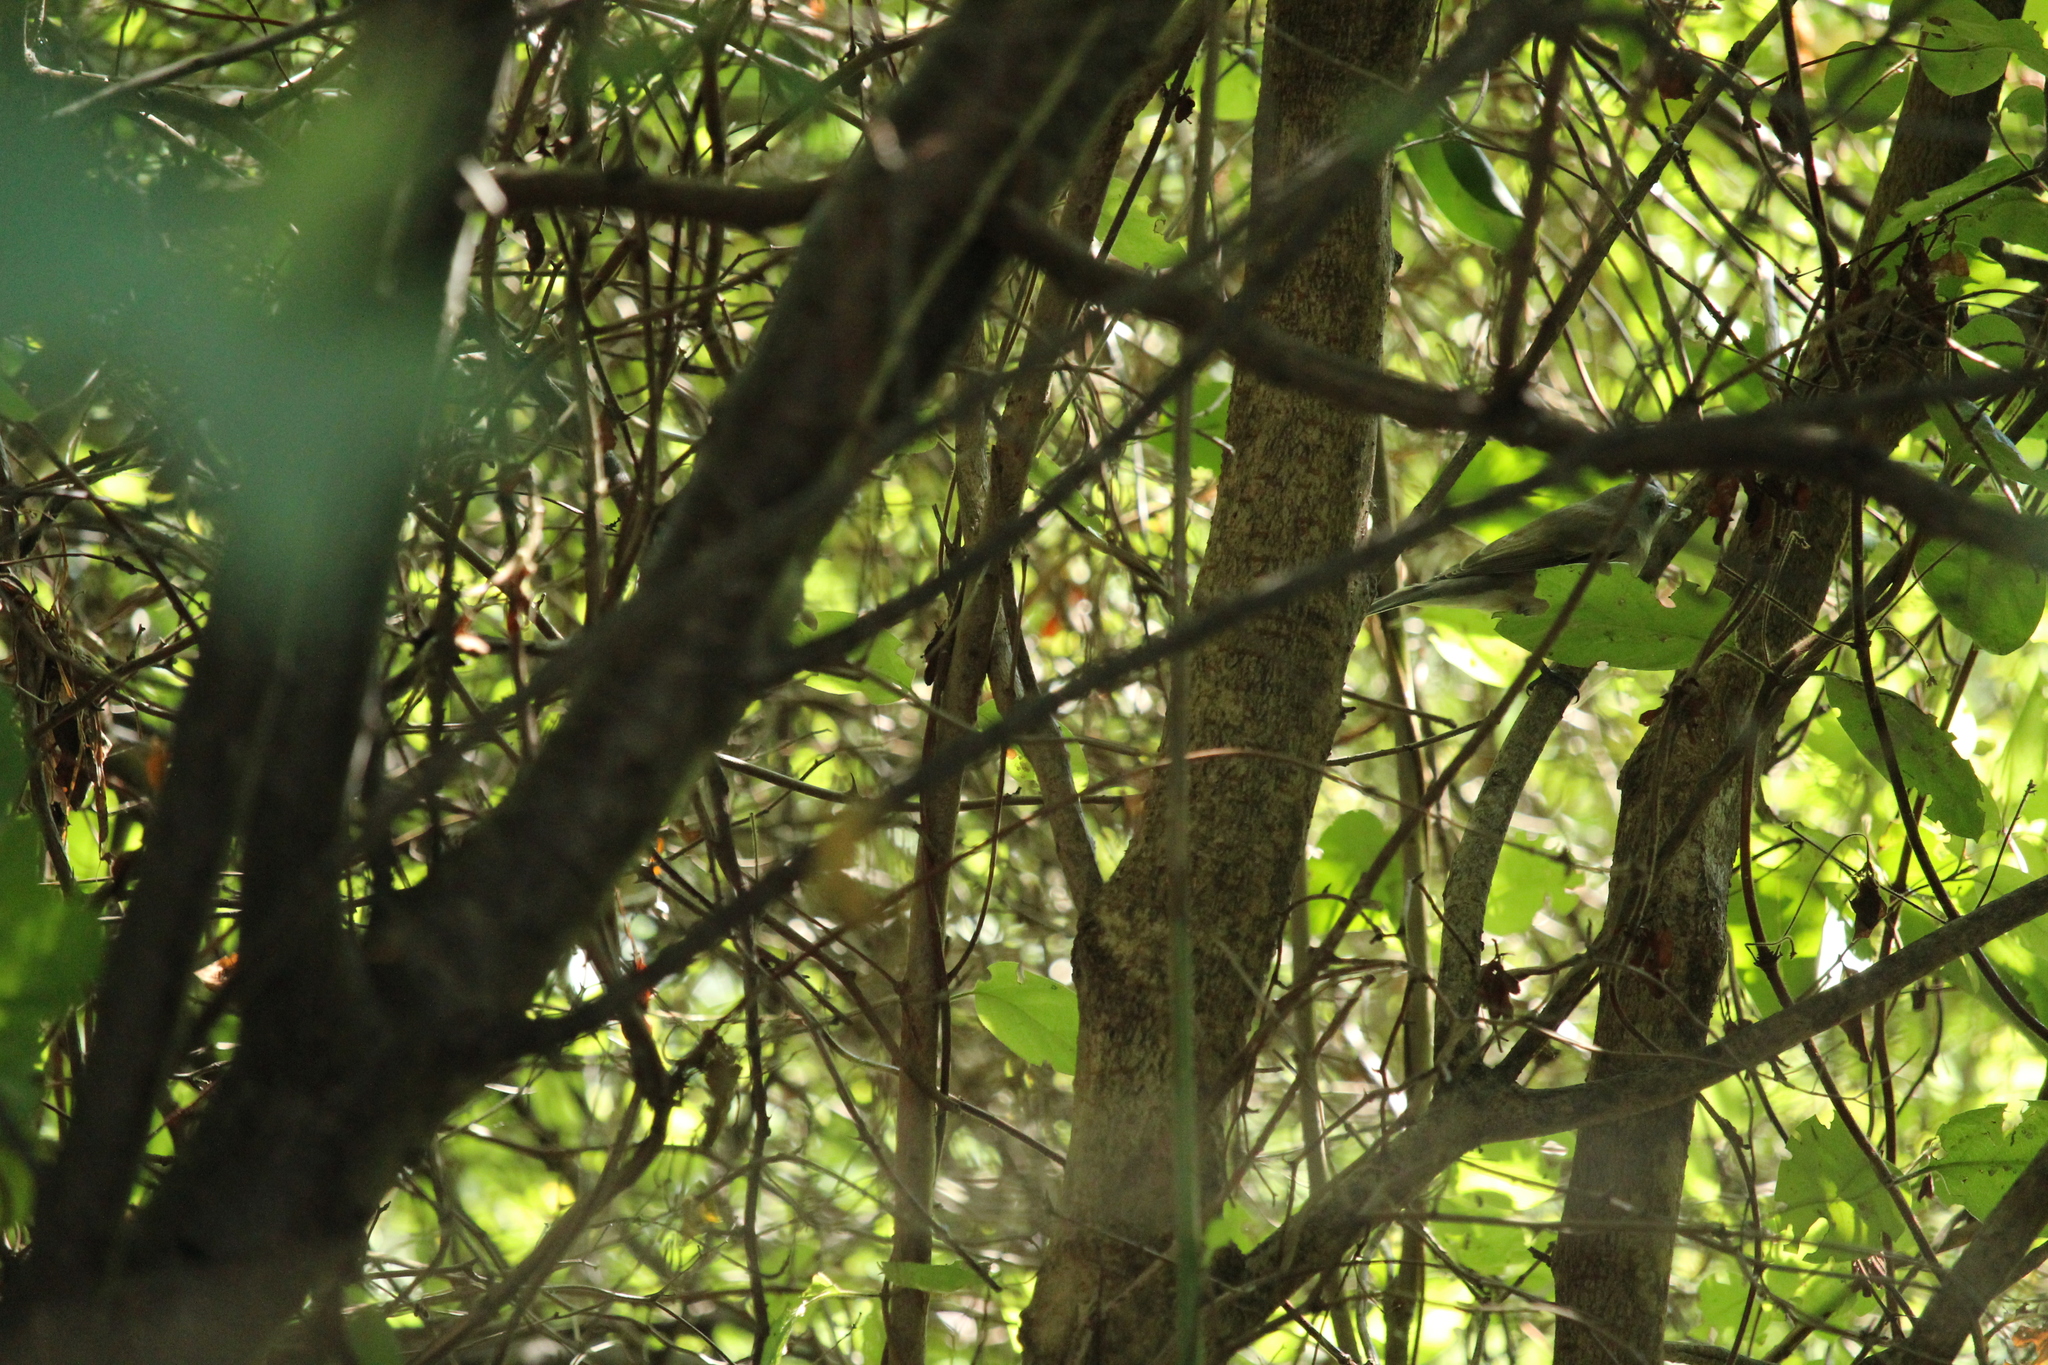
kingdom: Animalia
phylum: Chordata
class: Aves
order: Passeriformes
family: Sylviidae
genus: Sylvia
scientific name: Sylvia curruca
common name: Lesser whitethroat
